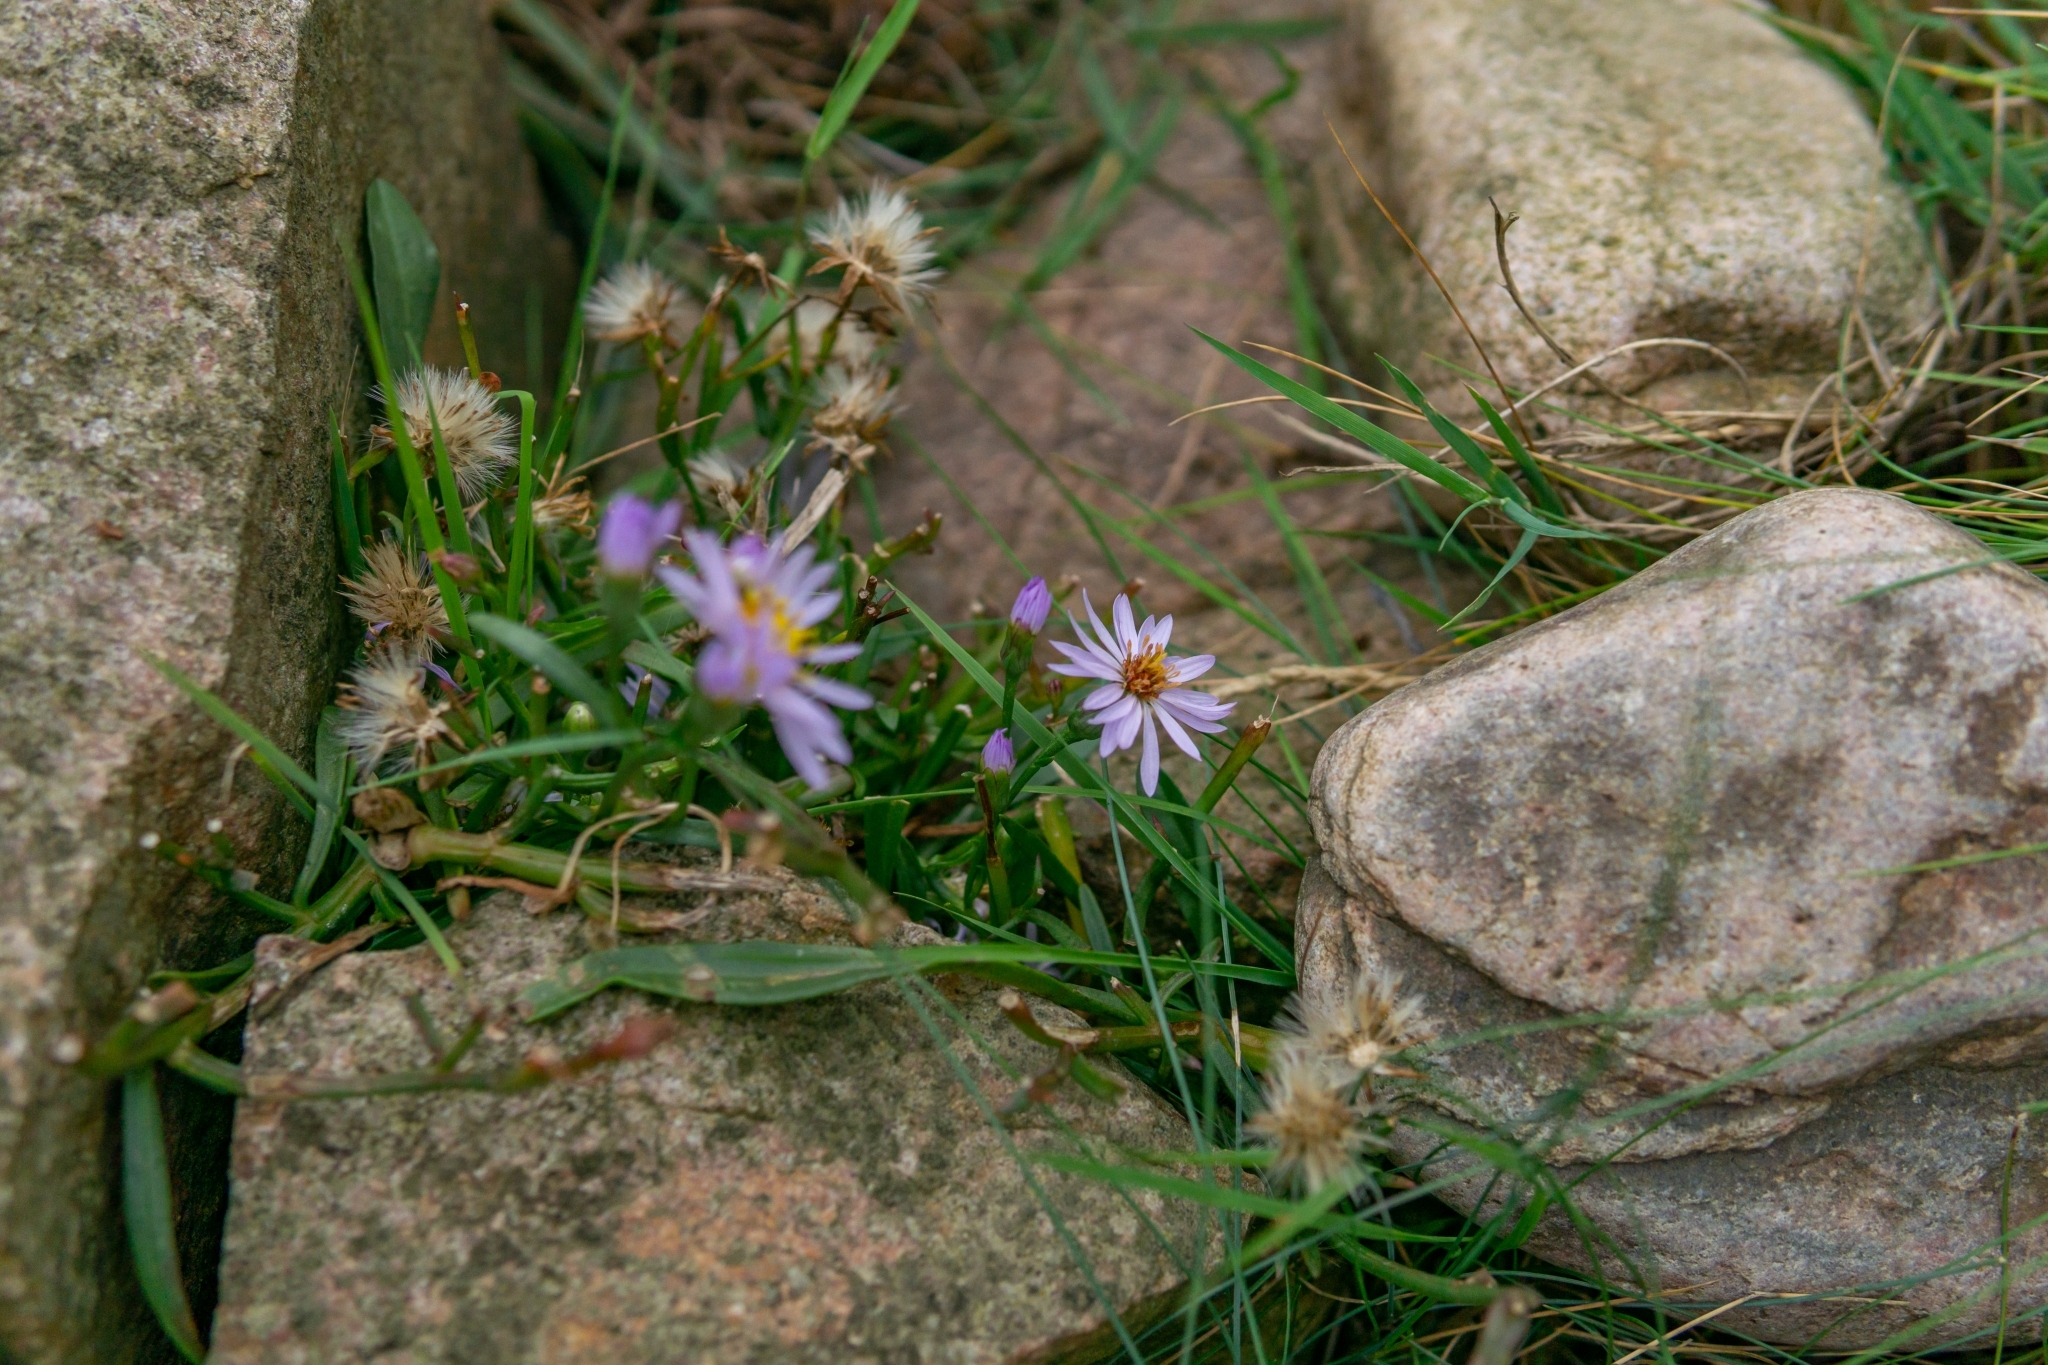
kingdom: Plantae
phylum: Tracheophyta
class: Magnoliopsida
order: Asterales
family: Asteraceae
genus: Tripolium
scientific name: Tripolium pannonicum
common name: Sea aster
